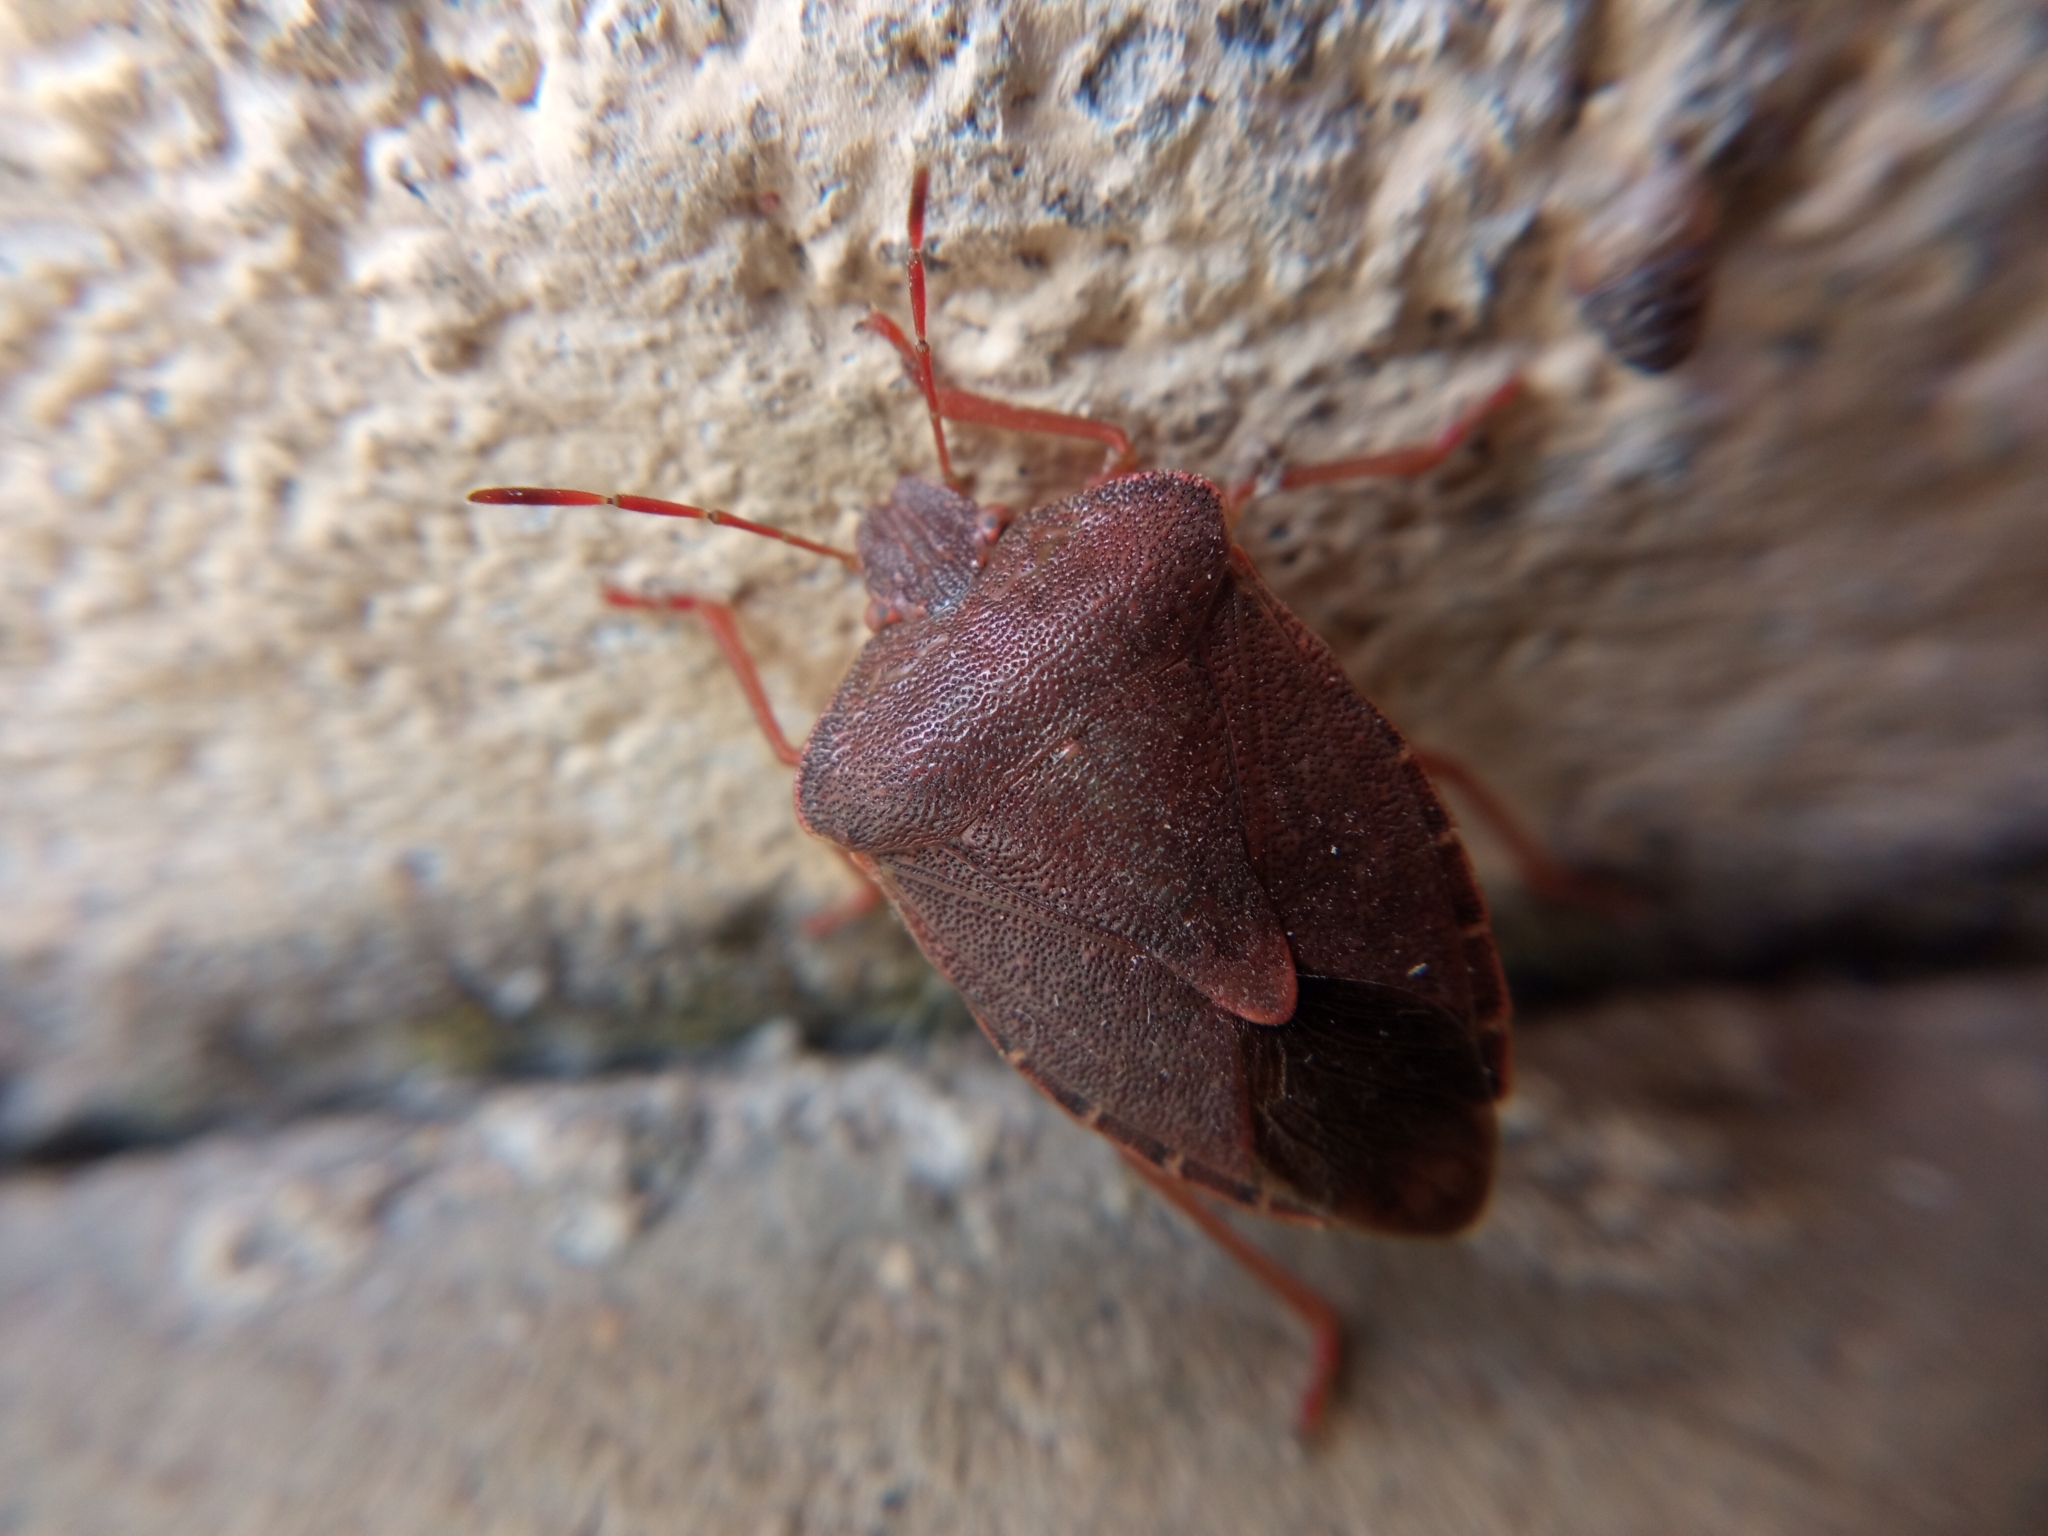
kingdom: Animalia
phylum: Arthropoda
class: Insecta
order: Hemiptera
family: Pentatomidae
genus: Palomena
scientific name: Palomena prasina
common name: Green shieldbug
